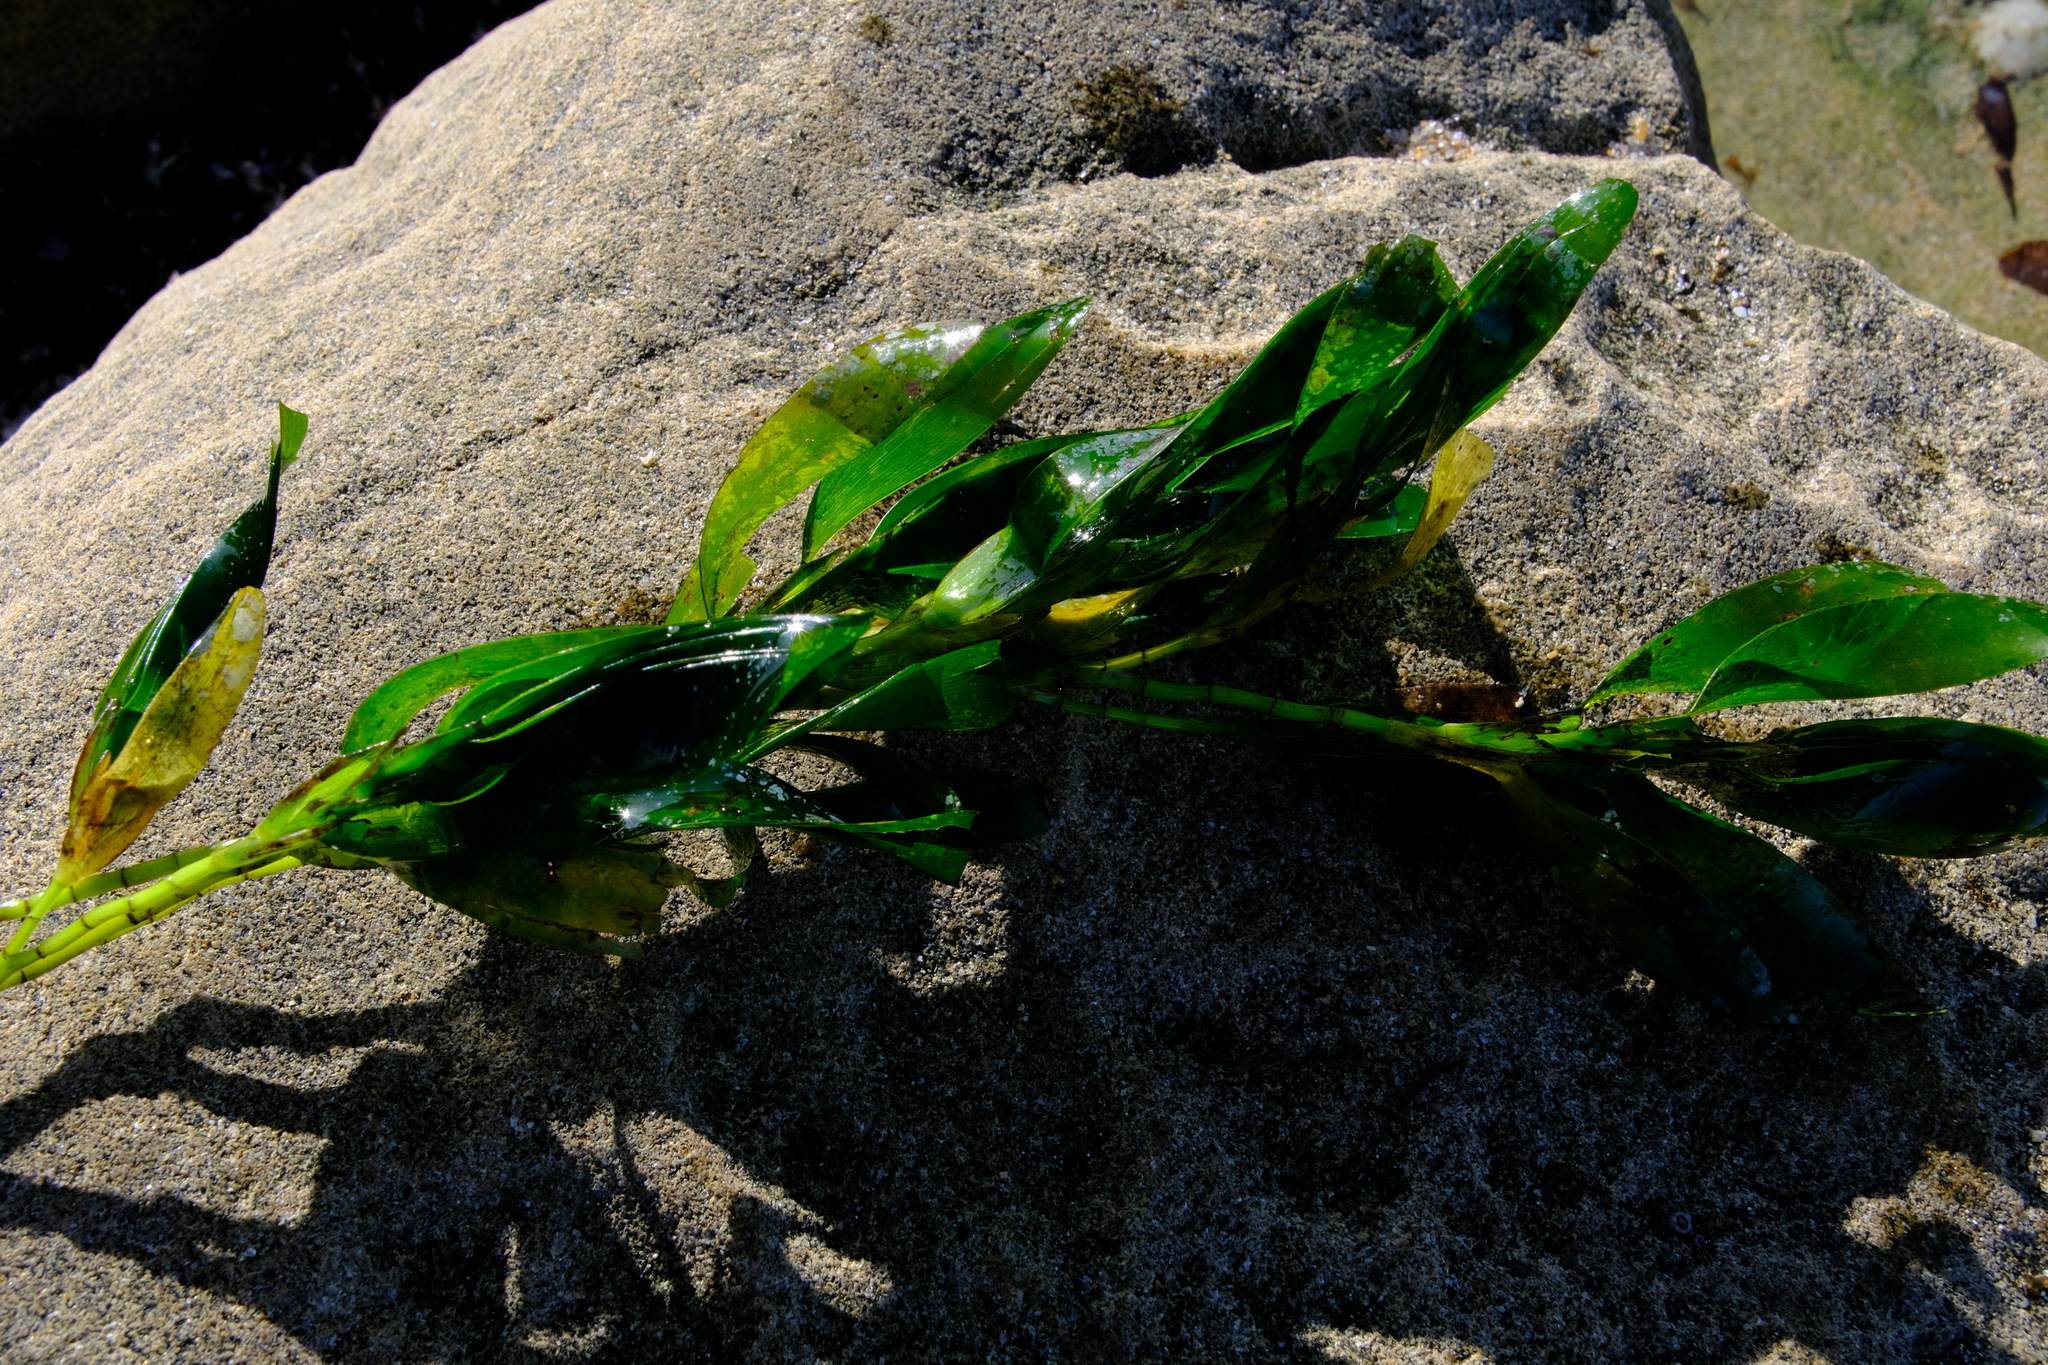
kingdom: Plantae
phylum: Tracheophyta
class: Liliopsida
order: Alismatales
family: Cymodoceaceae
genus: Amphibolis
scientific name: Amphibolis antarctica
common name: Species code: aa
